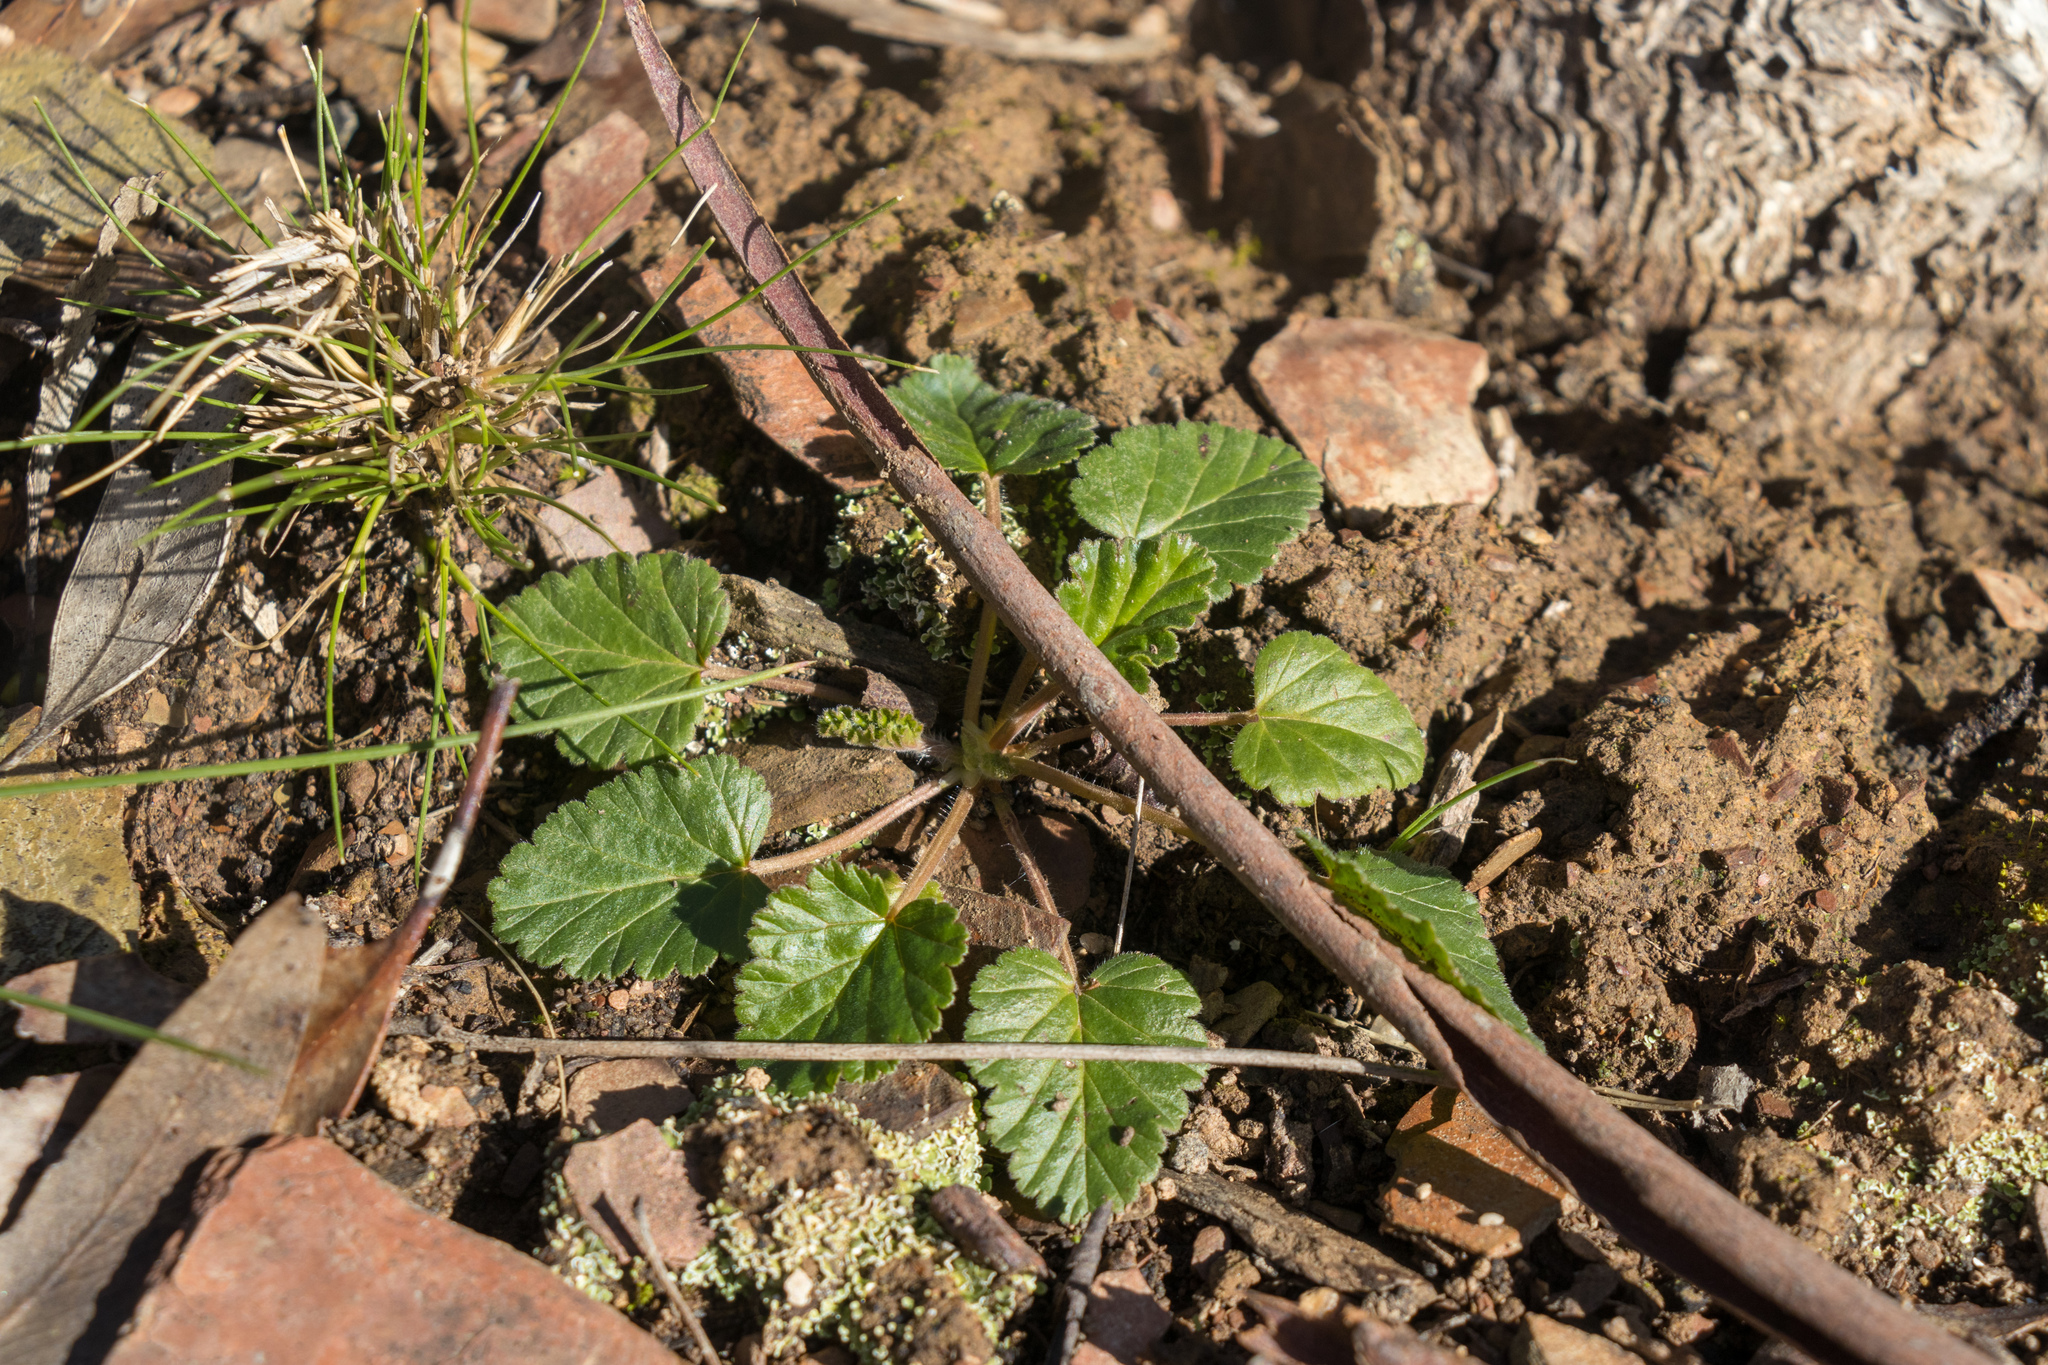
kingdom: Plantae
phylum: Tracheophyta
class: Magnoliopsida
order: Geraniales
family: Geraniaceae
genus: Pelargonium
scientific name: Pelargonium rodneyanum
